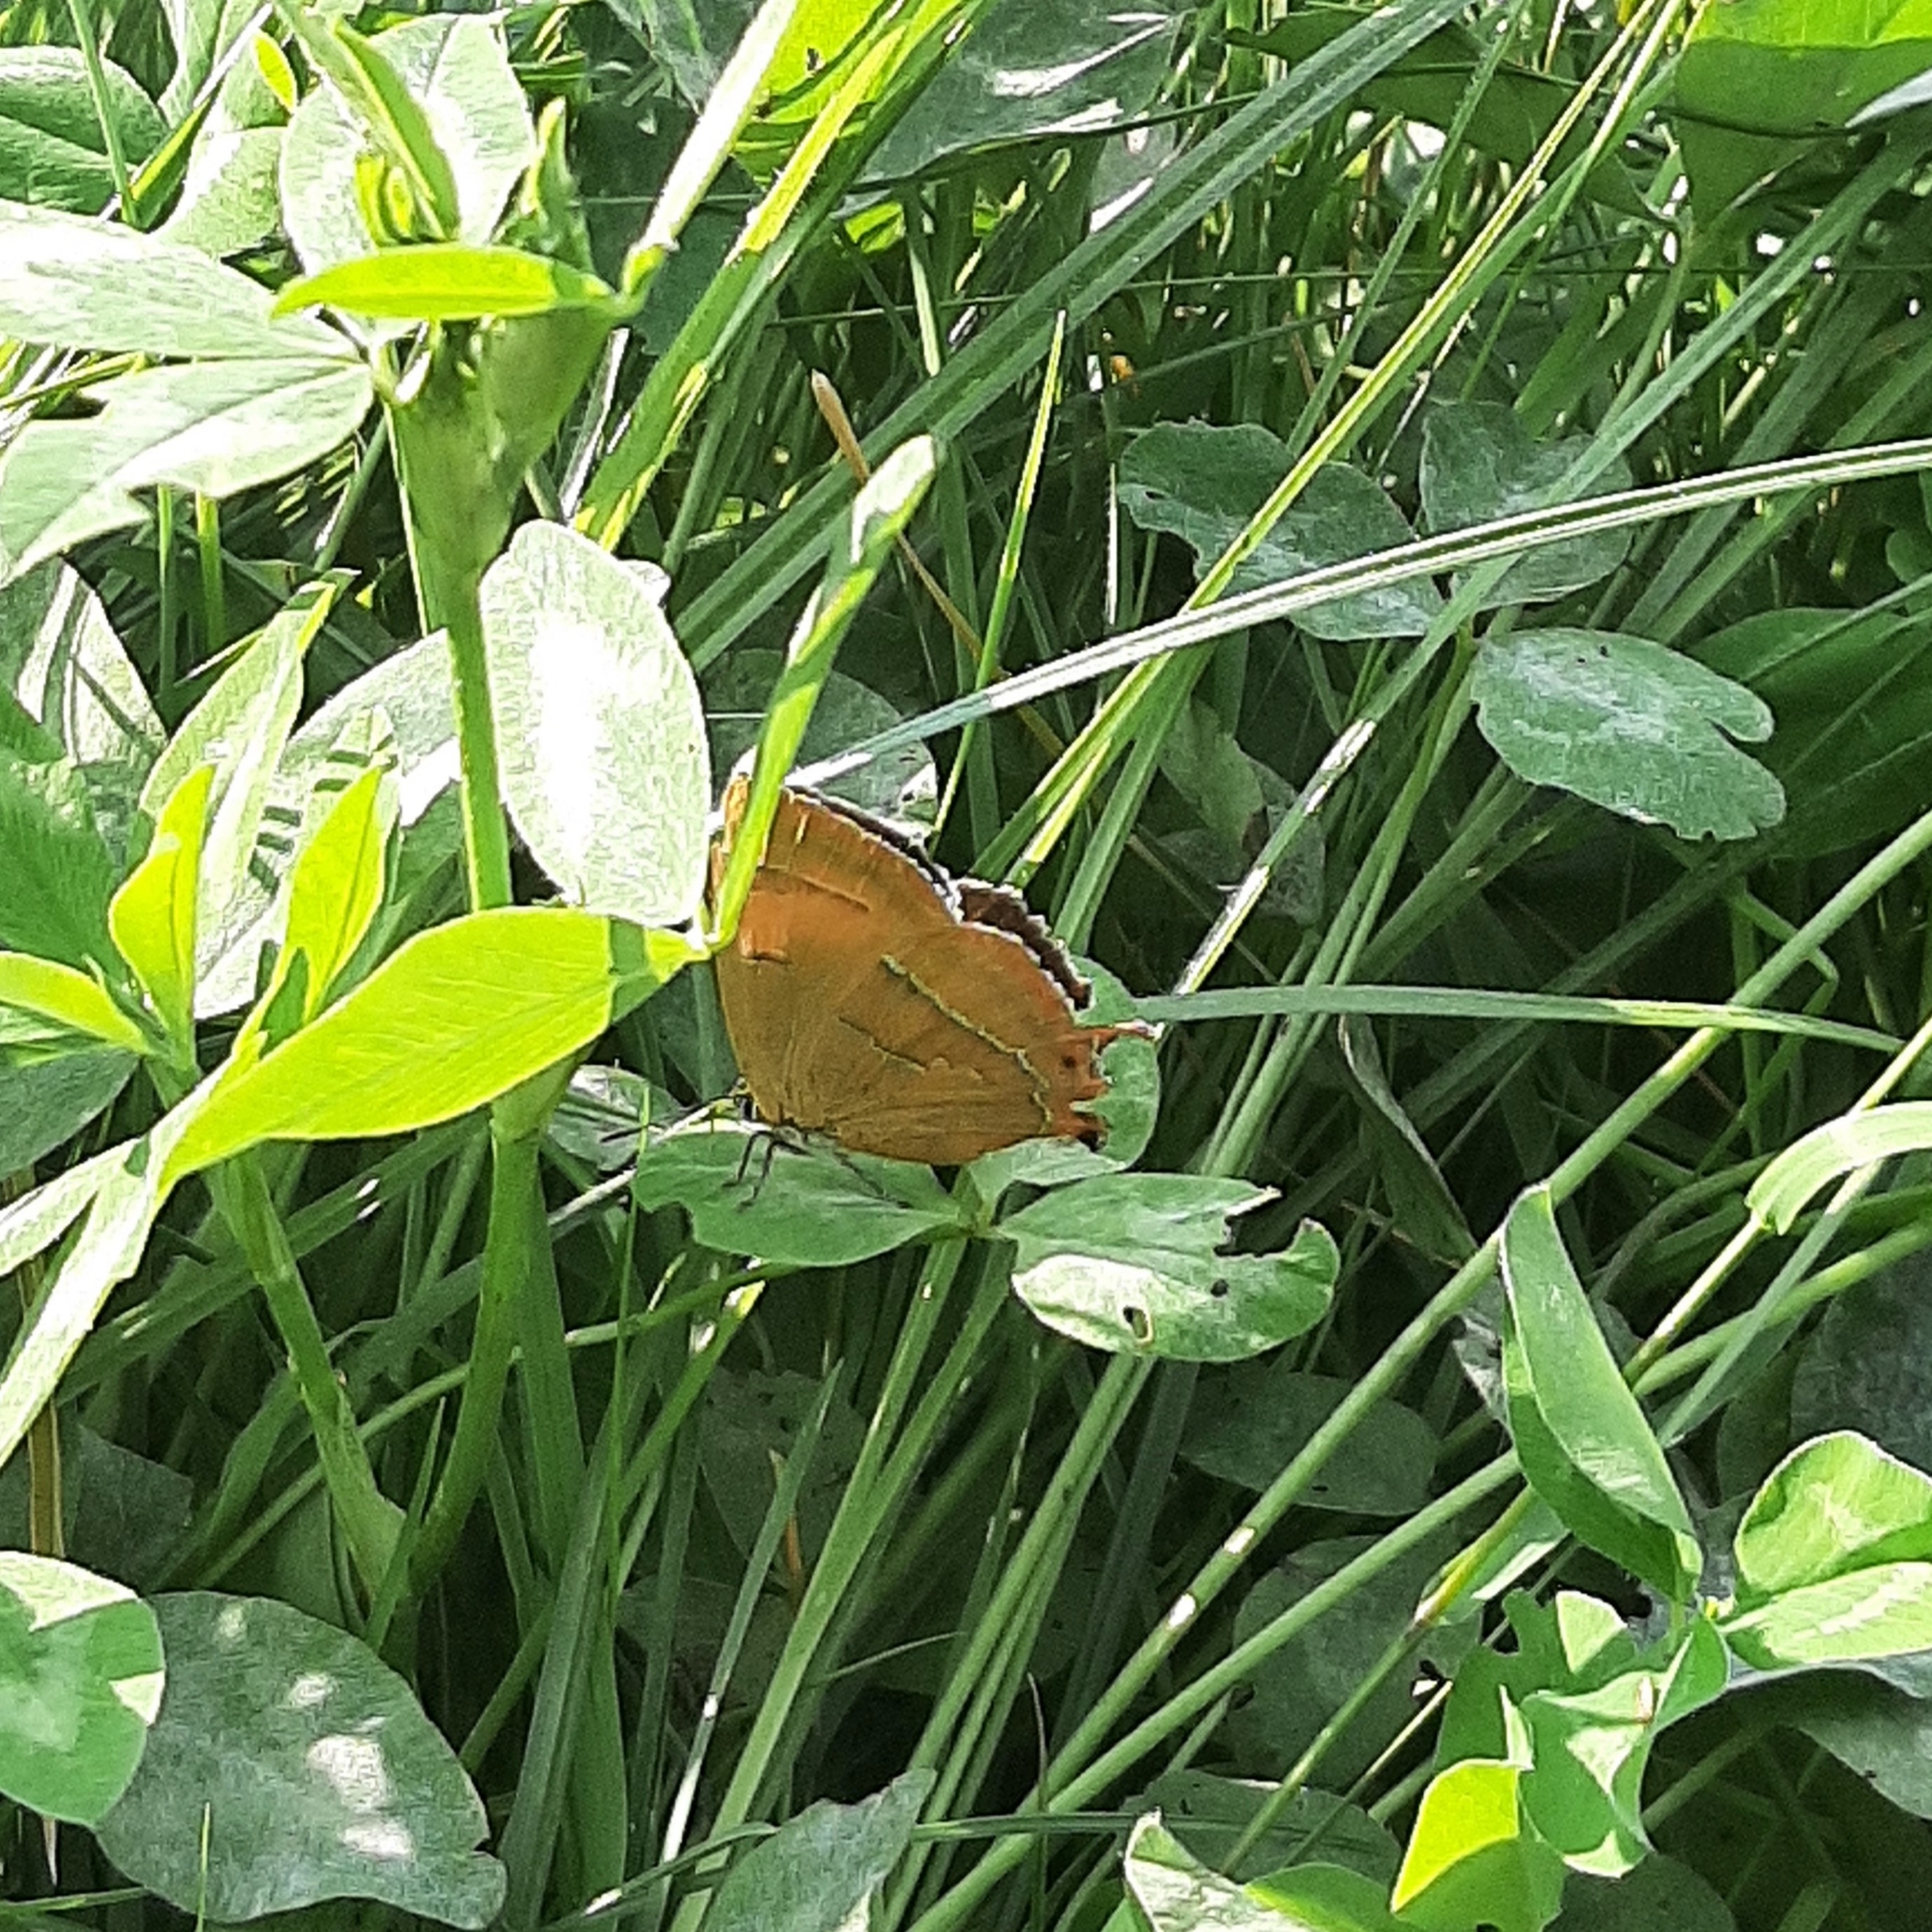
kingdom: Animalia
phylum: Arthropoda
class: Insecta
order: Lepidoptera
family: Lycaenidae
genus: Thecla
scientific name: Thecla betulae
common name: Brown hairstreak
